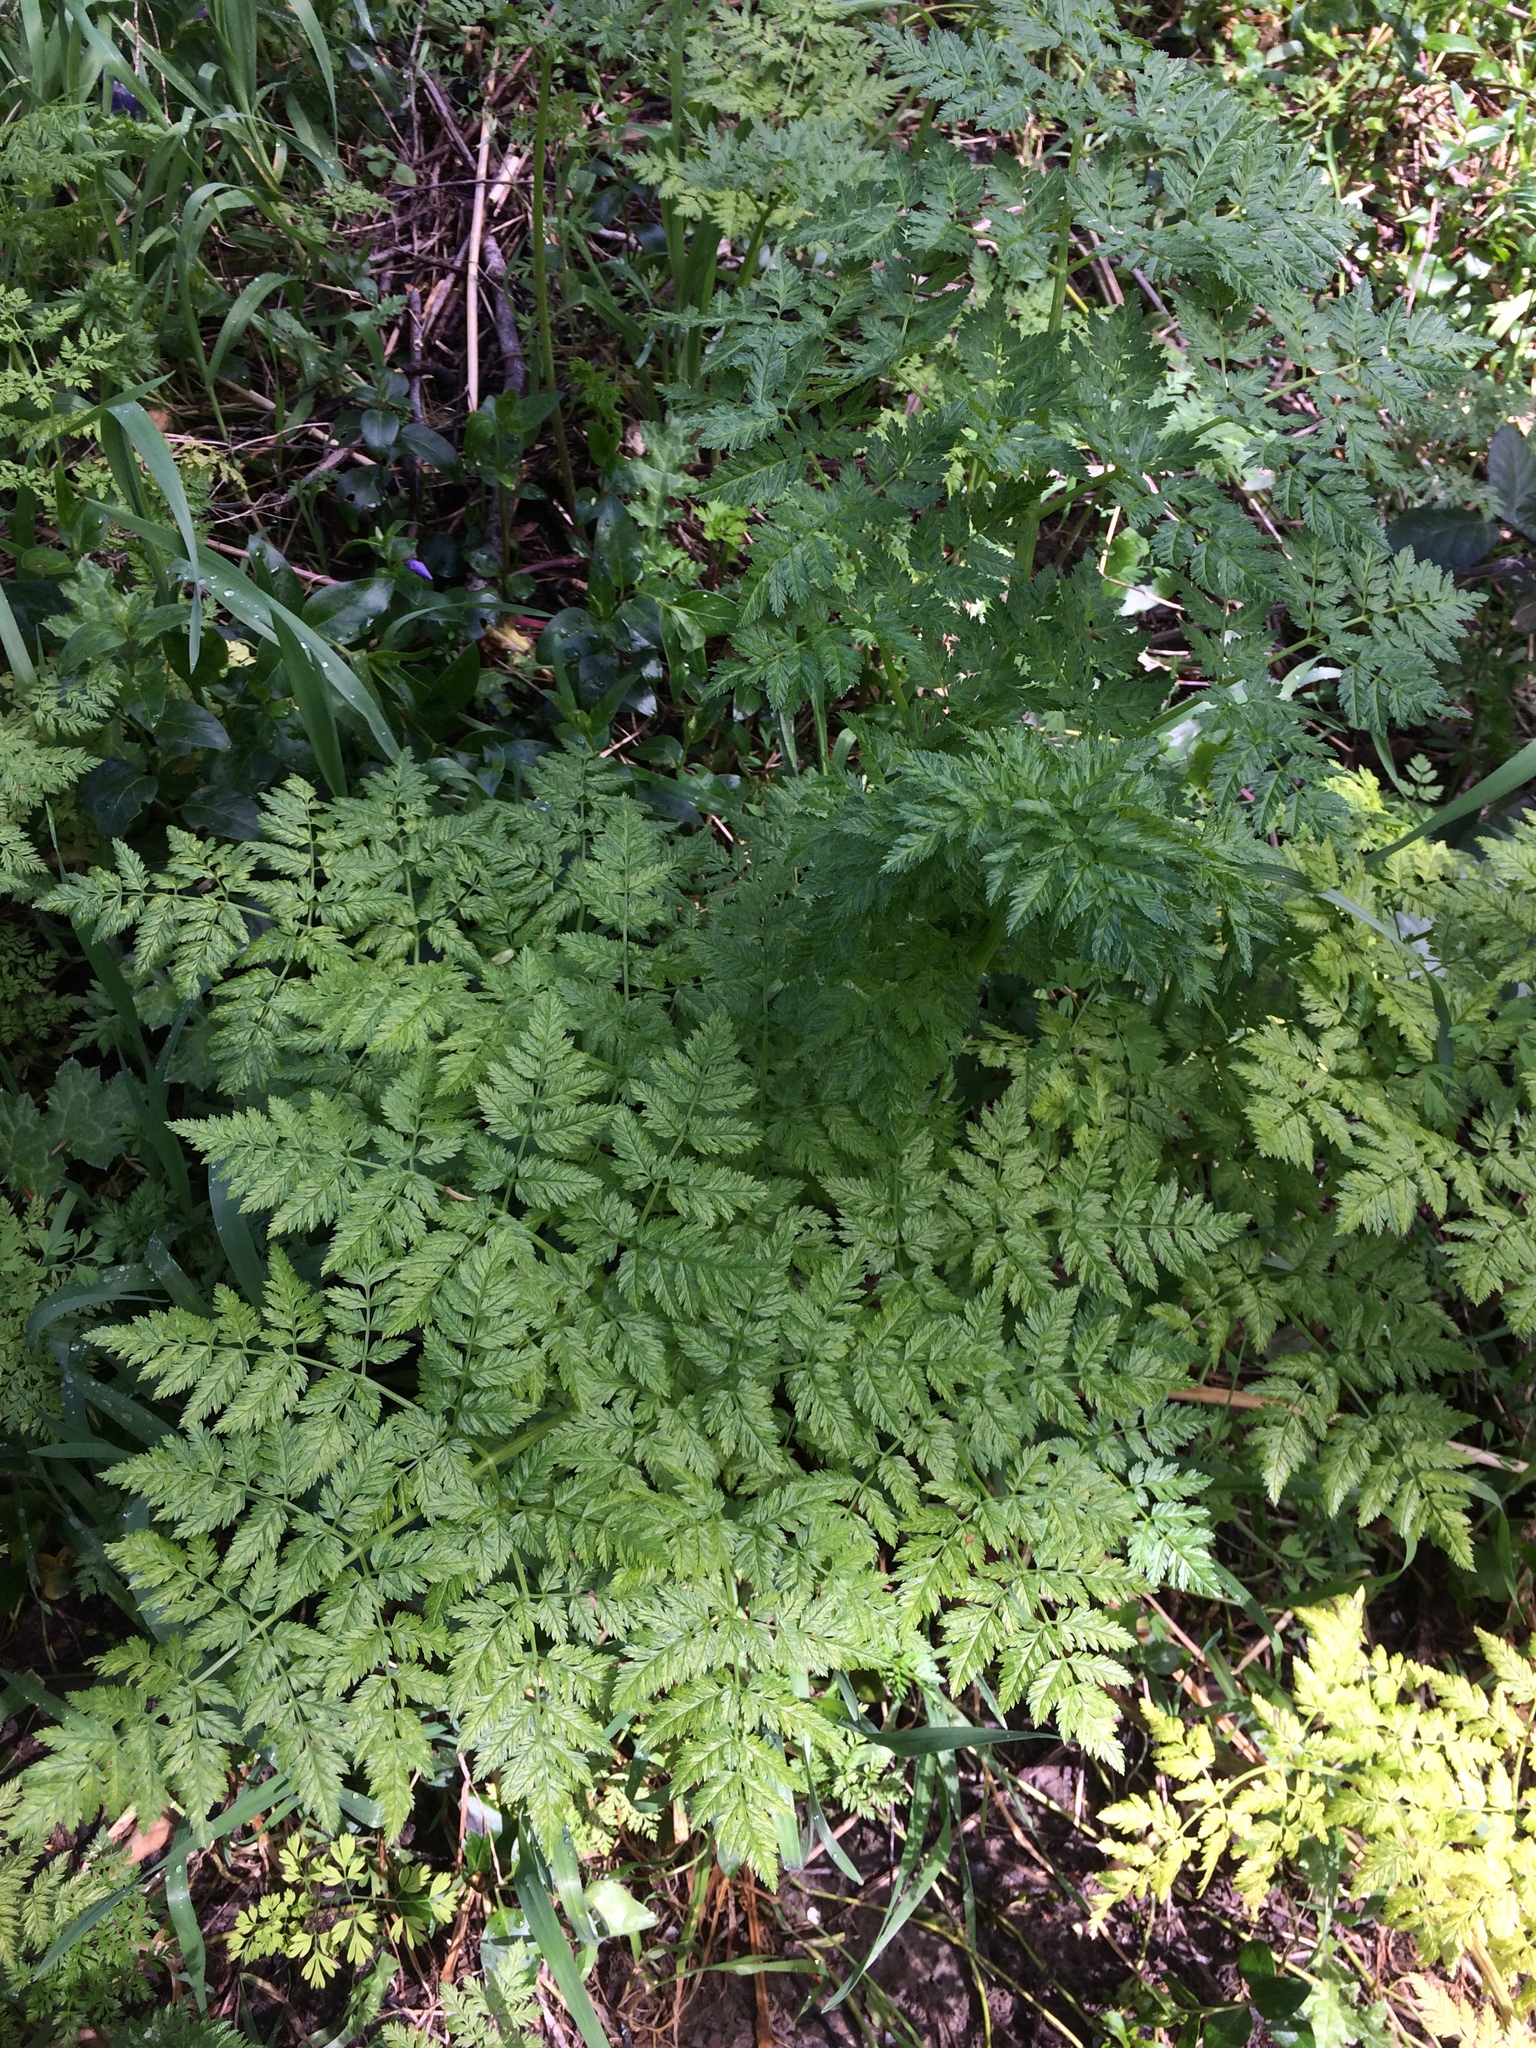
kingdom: Plantae
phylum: Tracheophyta
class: Magnoliopsida
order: Apiales
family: Apiaceae
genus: Conium
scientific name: Conium maculatum
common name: Hemlock
